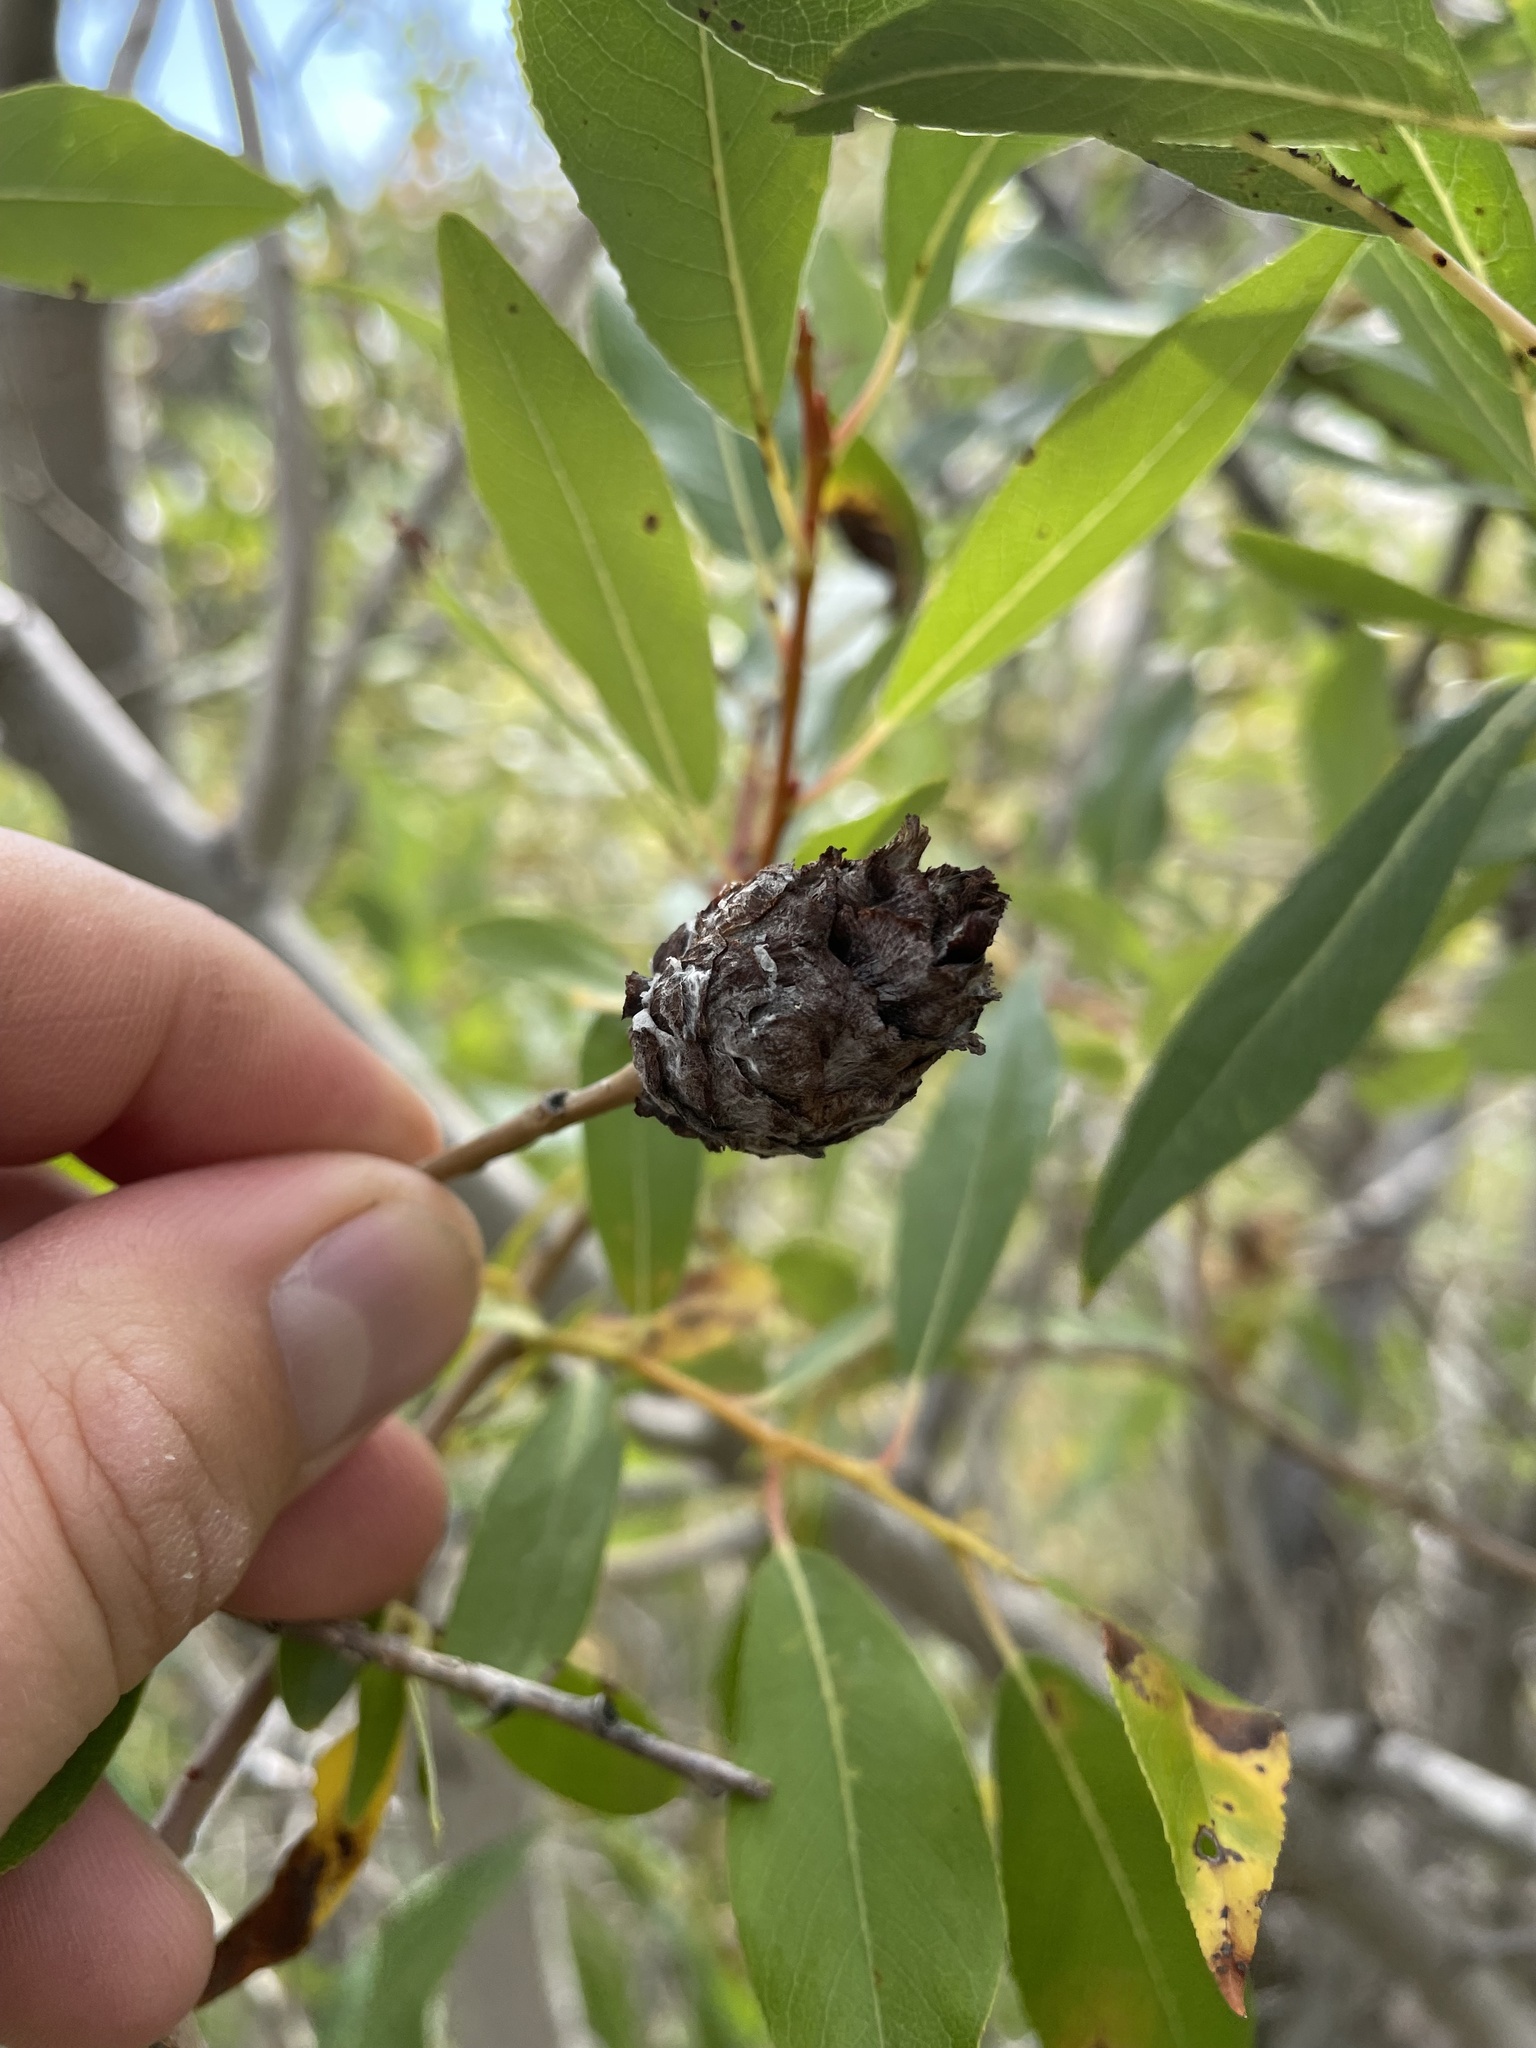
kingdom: Animalia
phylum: Arthropoda
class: Insecta
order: Diptera
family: Cecidomyiidae
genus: Rabdophaga
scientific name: Rabdophaga strobiloides
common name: Willow pinecone gall midge
